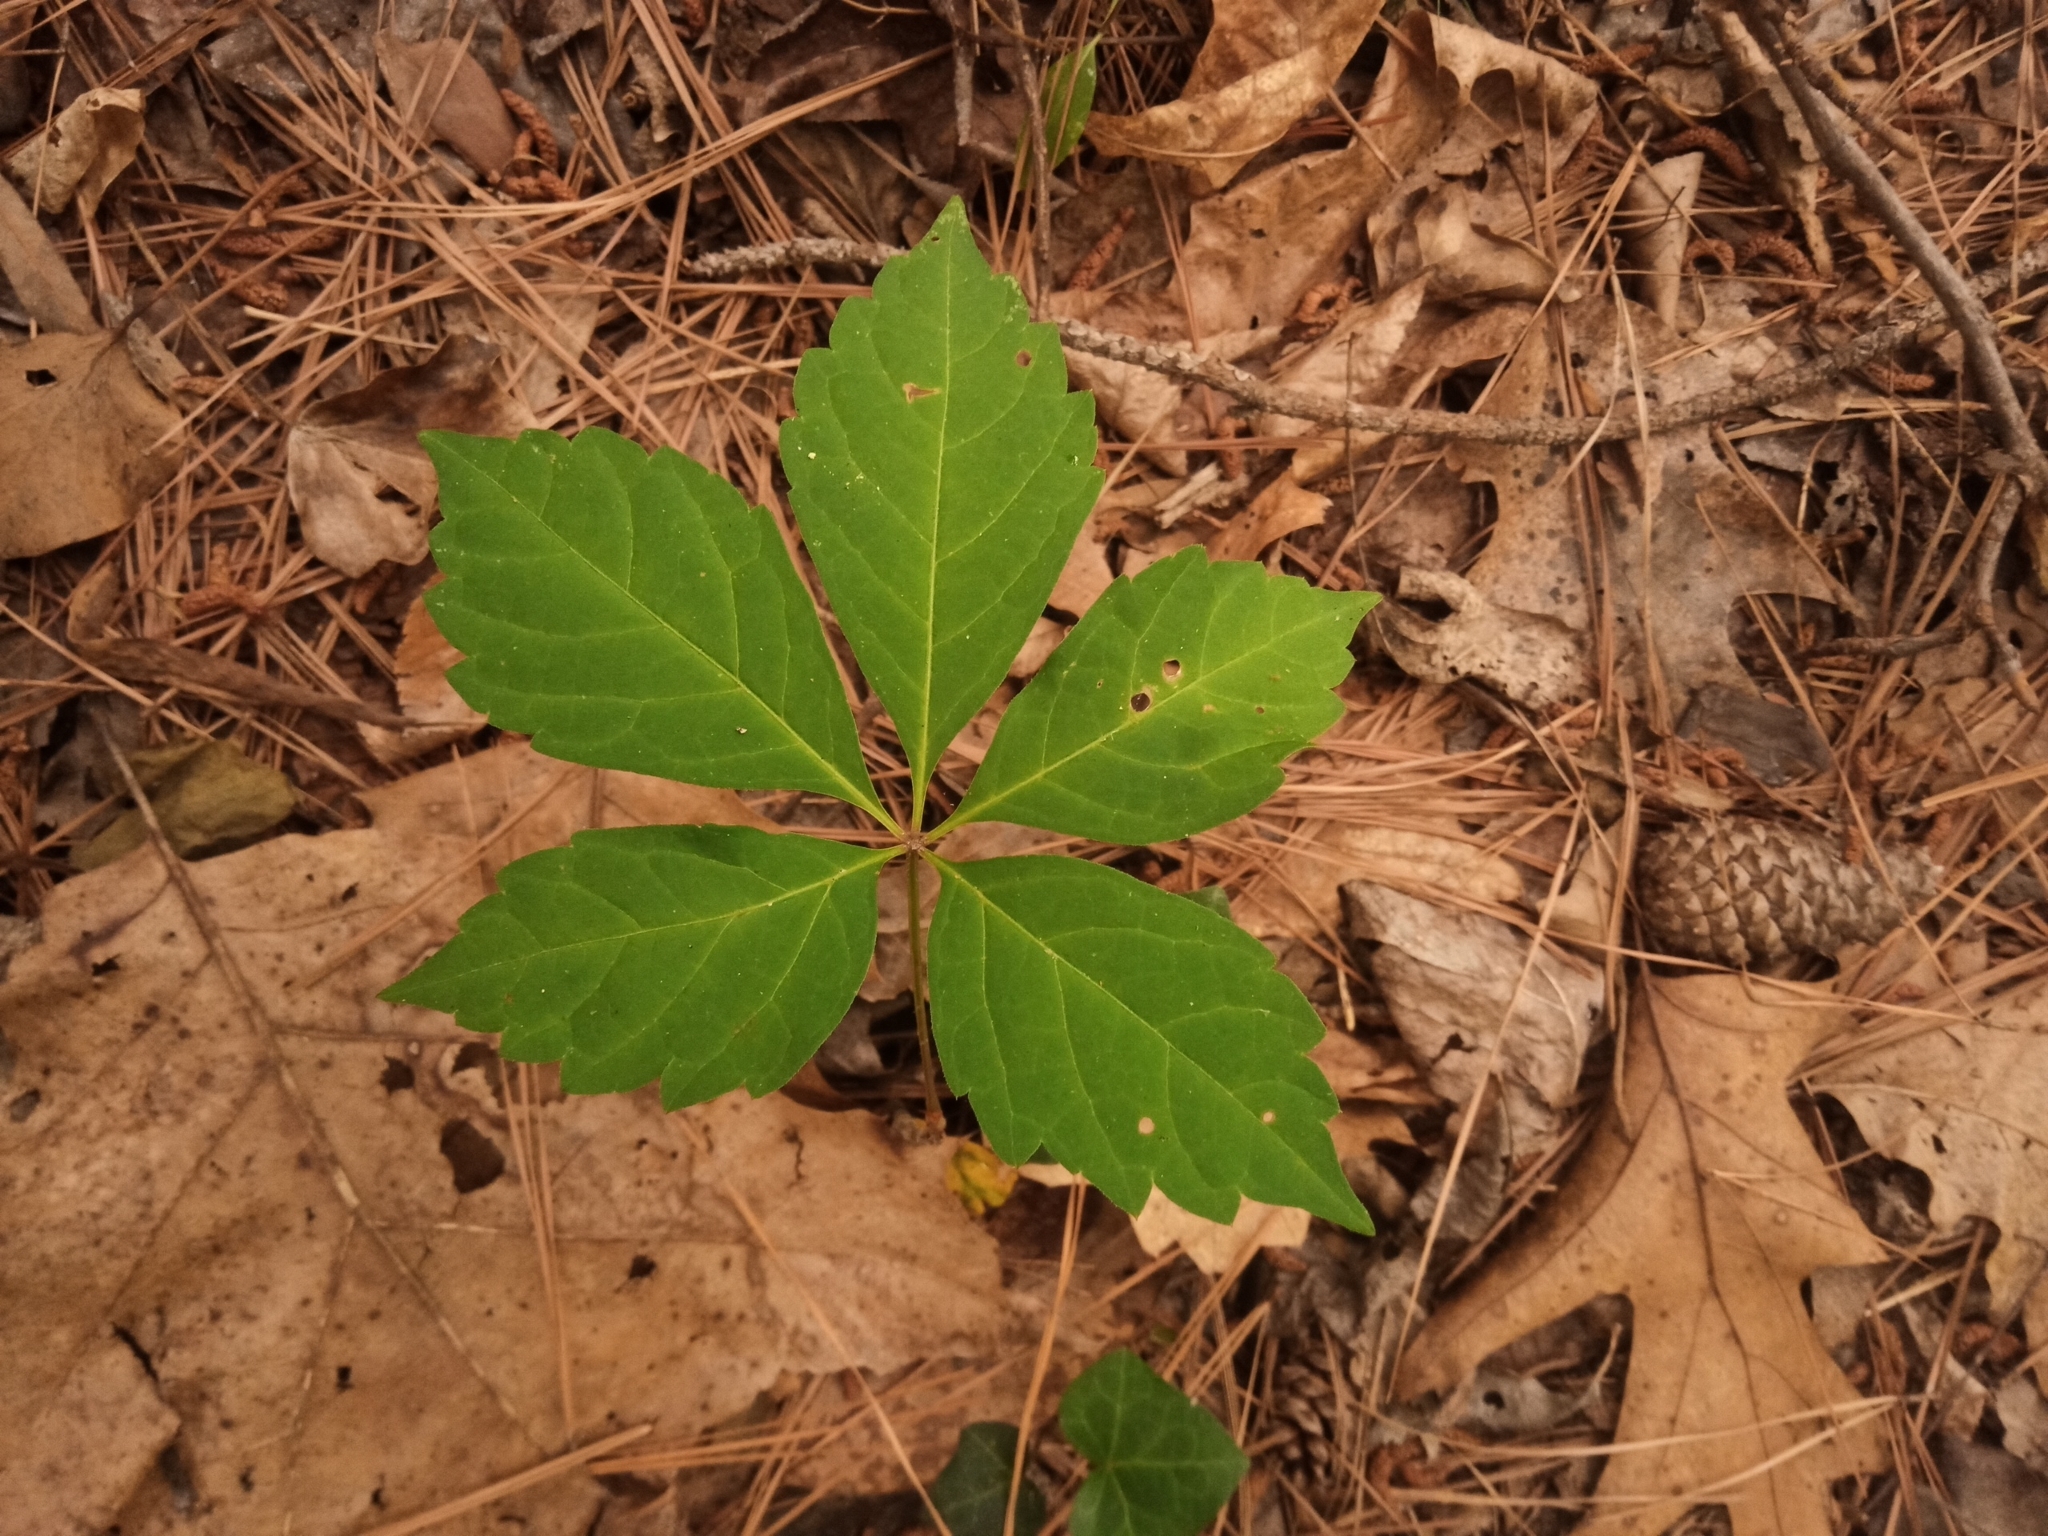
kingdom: Plantae
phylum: Tracheophyta
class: Magnoliopsida
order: Vitales
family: Vitaceae
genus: Parthenocissus
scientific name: Parthenocissus quinquefolia
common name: Virginia-creeper
